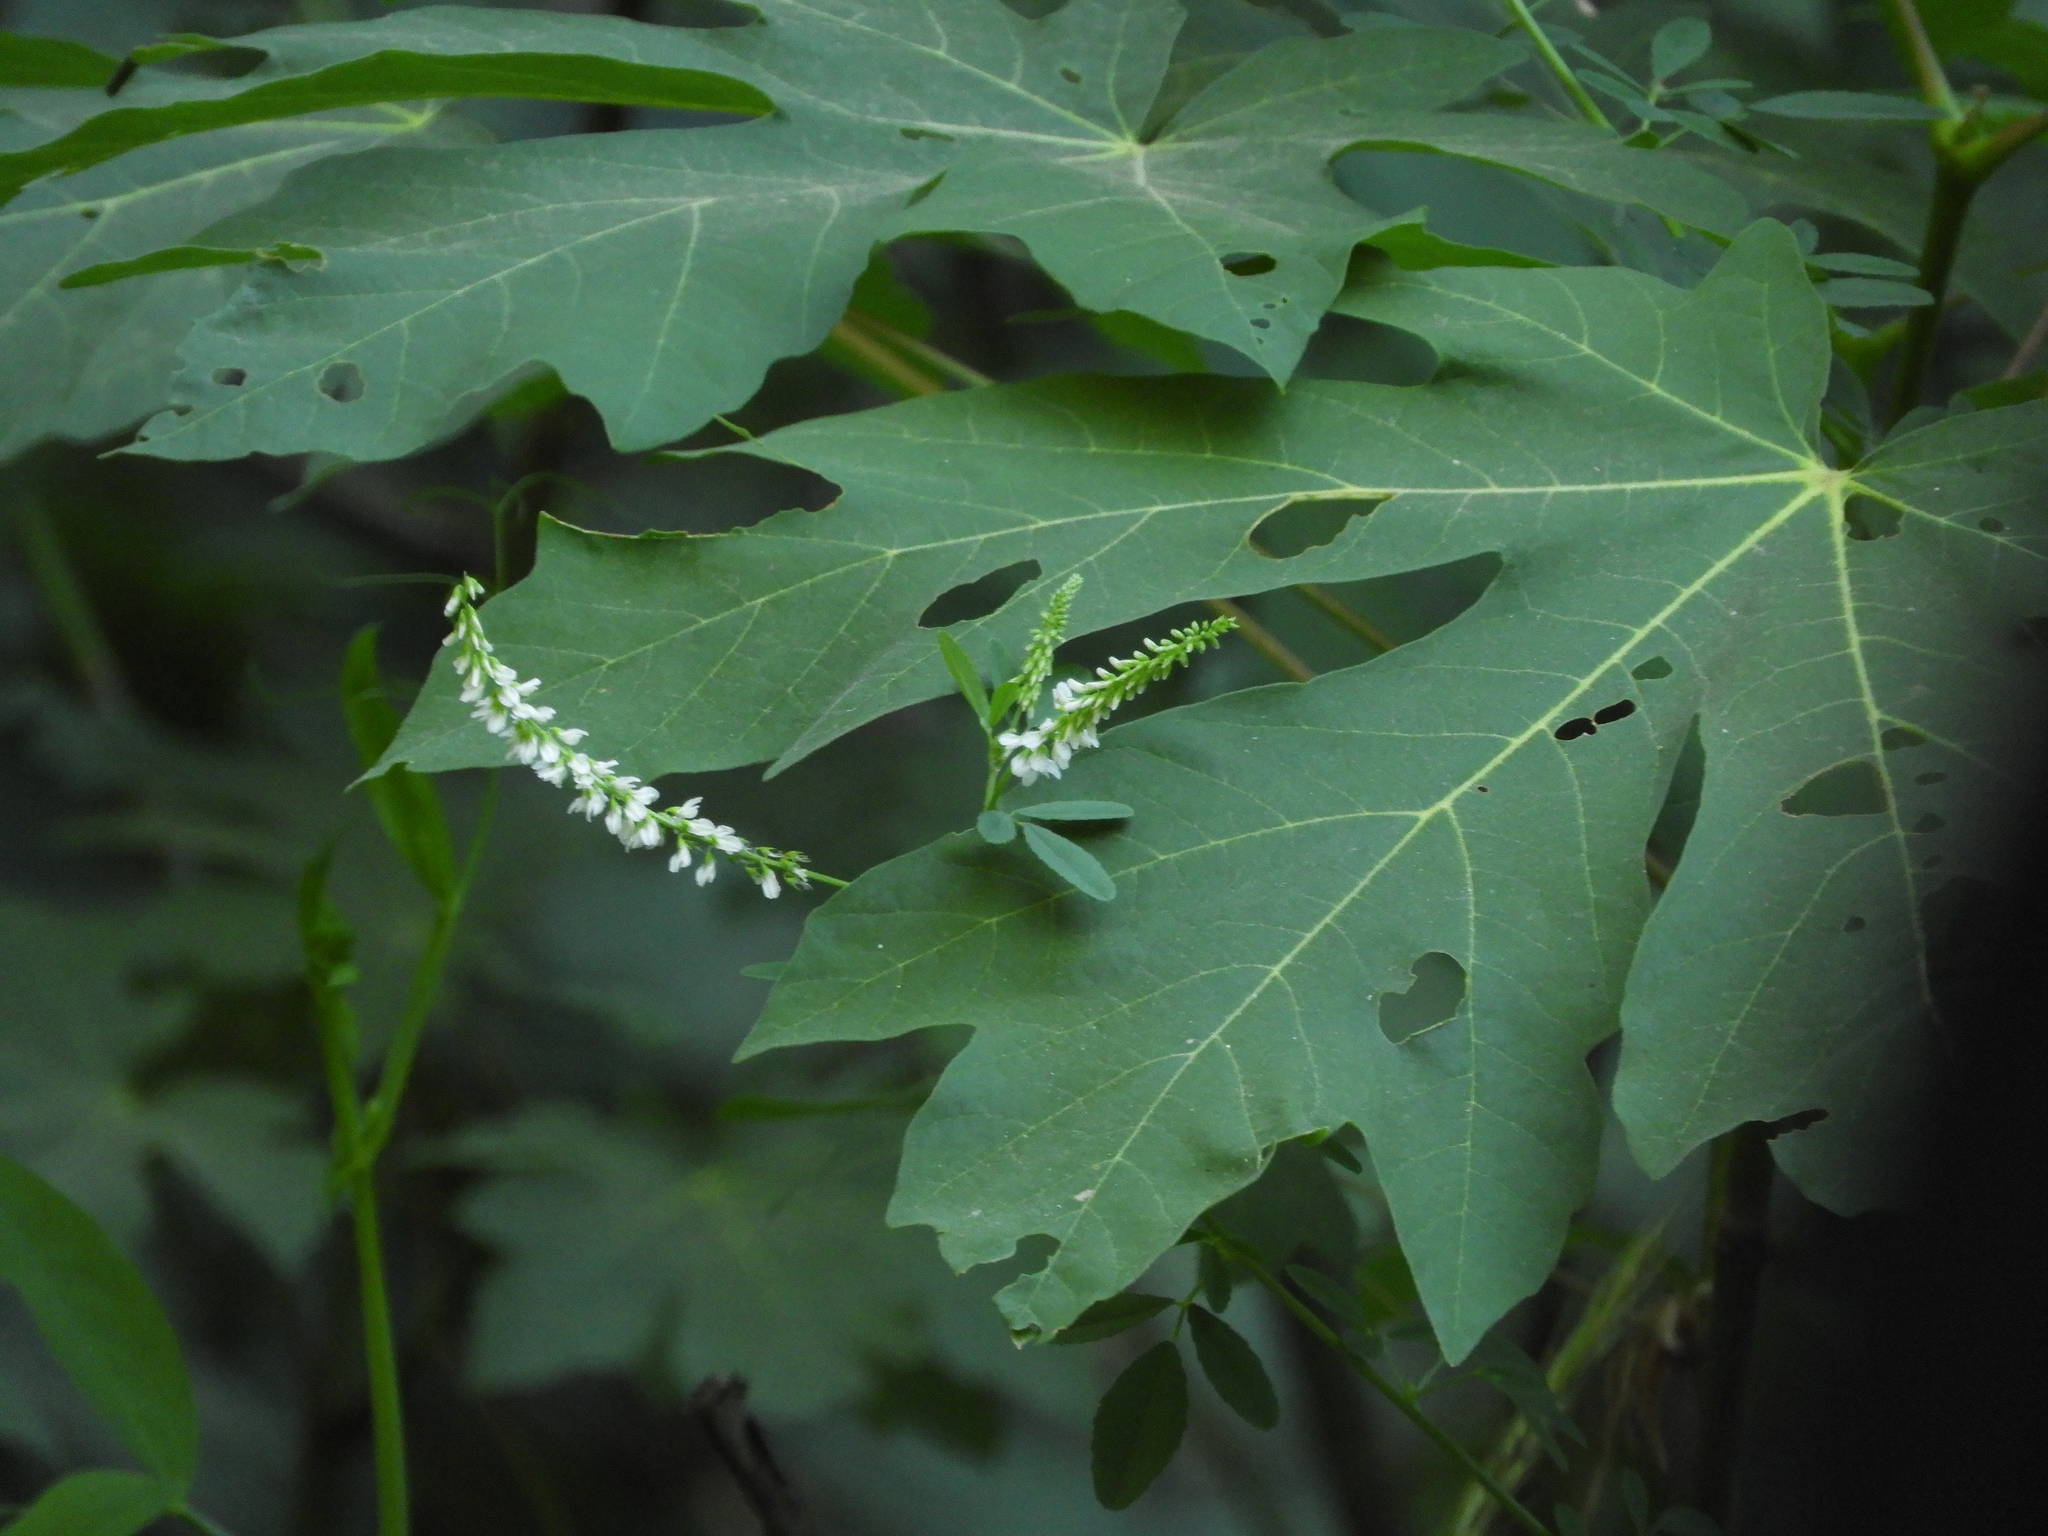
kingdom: Plantae
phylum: Tracheophyta
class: Magnoliopsida
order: Fabales
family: Fabaceae
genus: Melilotus
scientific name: Melilotus albus
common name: White melilot
